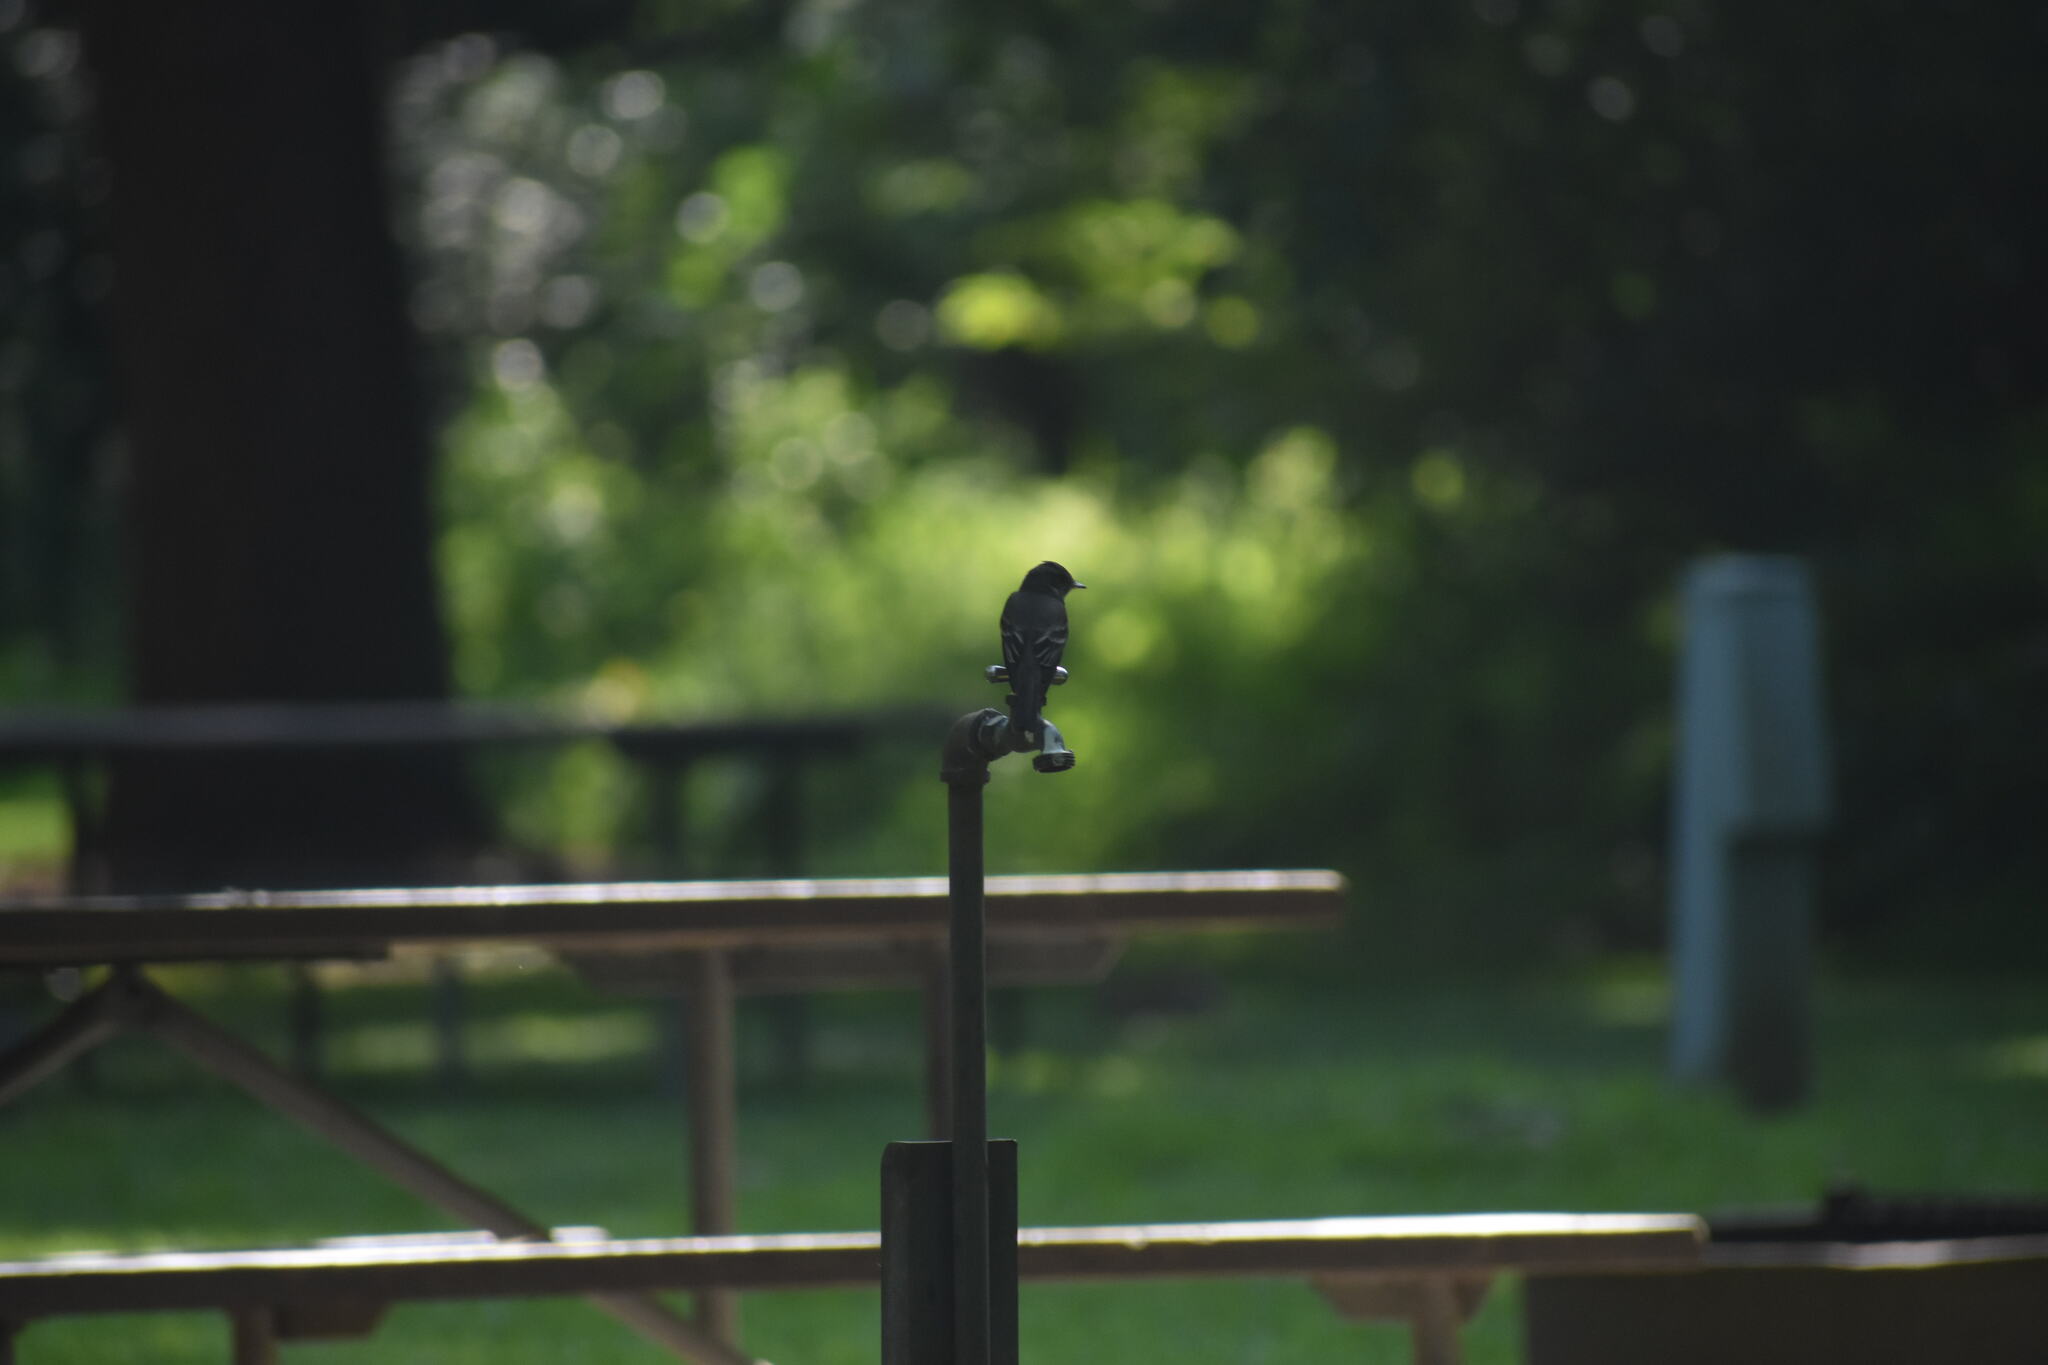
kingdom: Animalia
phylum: Chordata
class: Aves
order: Passeriformes
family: Tyrannidae
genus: Contopus
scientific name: Contopus virens
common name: Eastern wood-pewee
